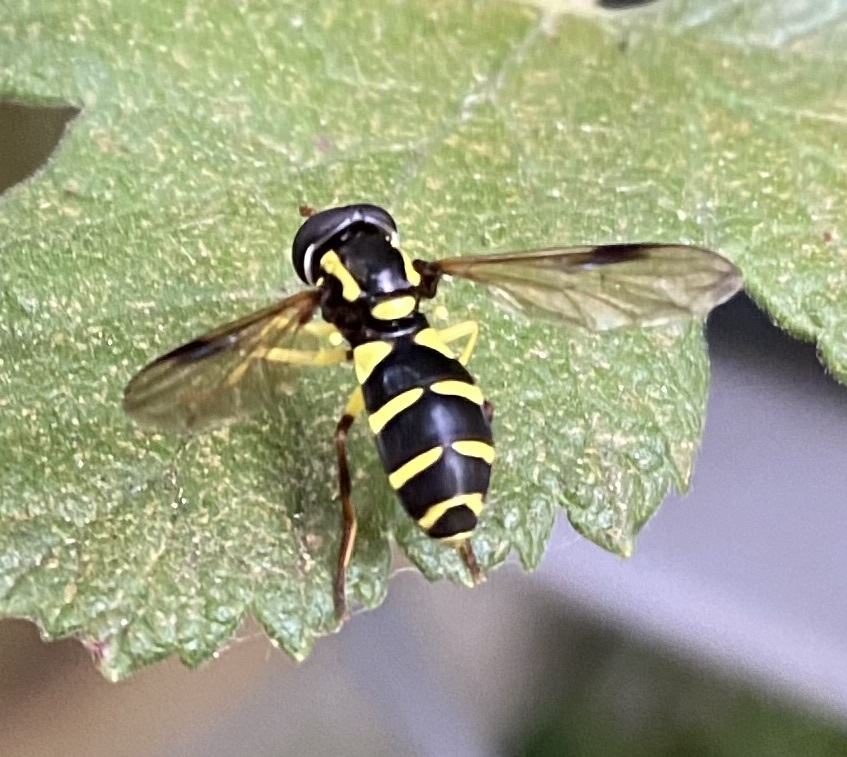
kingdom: Animalia
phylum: Arthropoda
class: Insecta
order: Diptera
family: Syrphidae
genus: Philhelius
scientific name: Philhelius pedissequum
